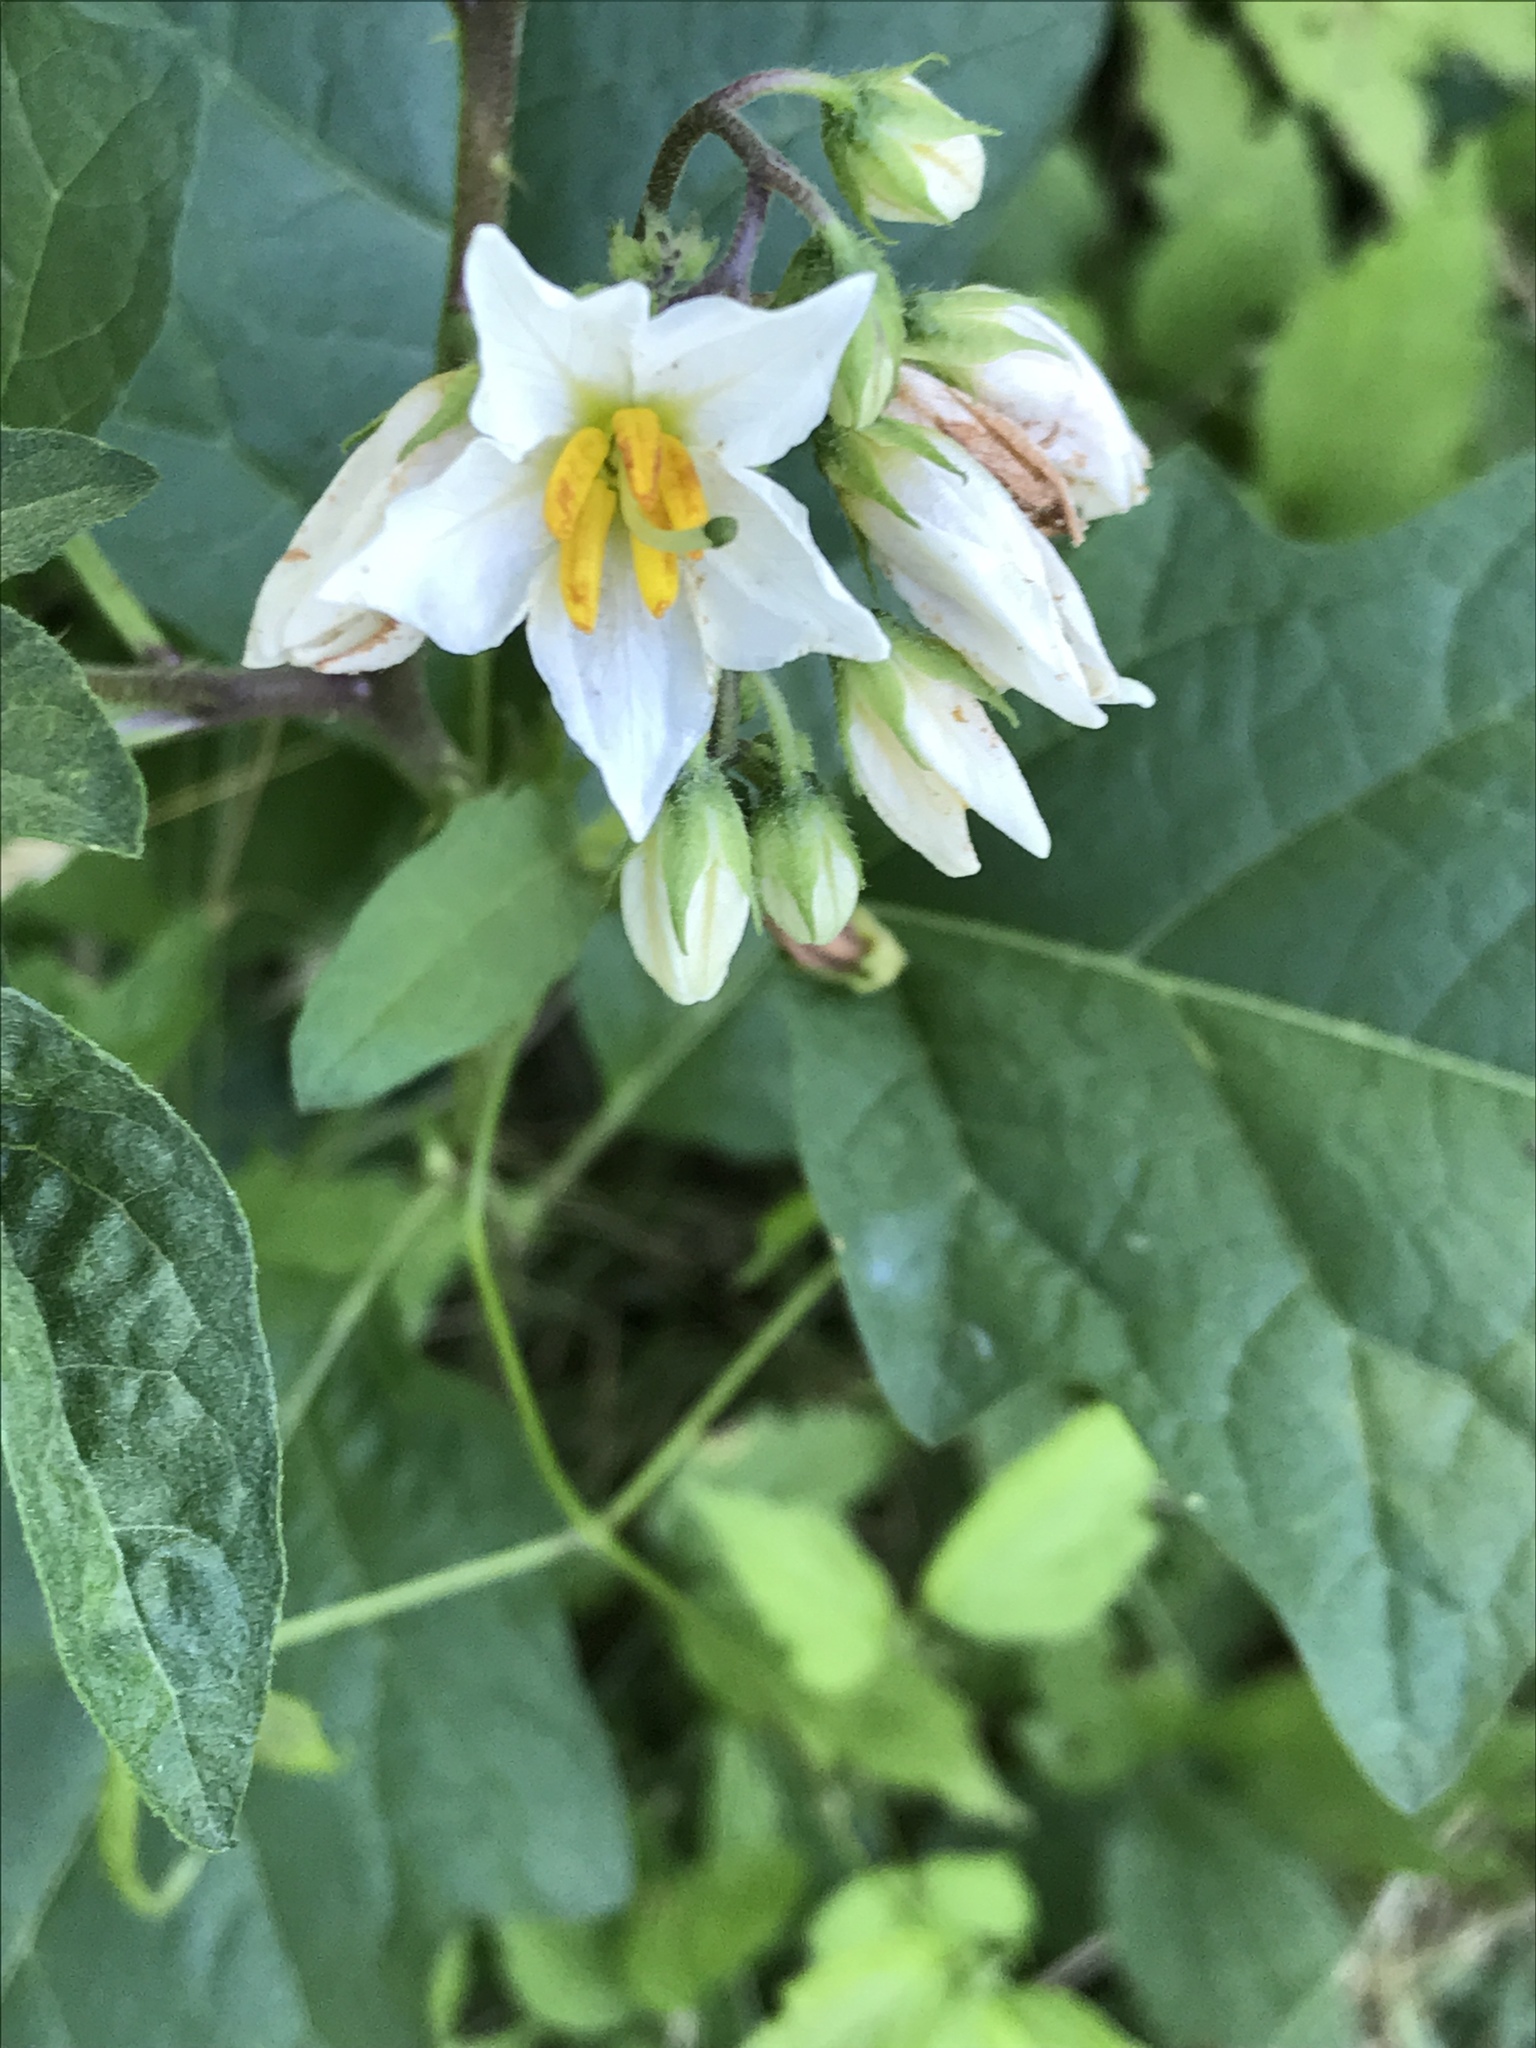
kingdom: Plantae
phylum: Tracheophyta
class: Magnoliopsida
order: Solanales
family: Solanaceae
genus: Solanum
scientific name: Solanum carolinense
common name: Horse-nettle
